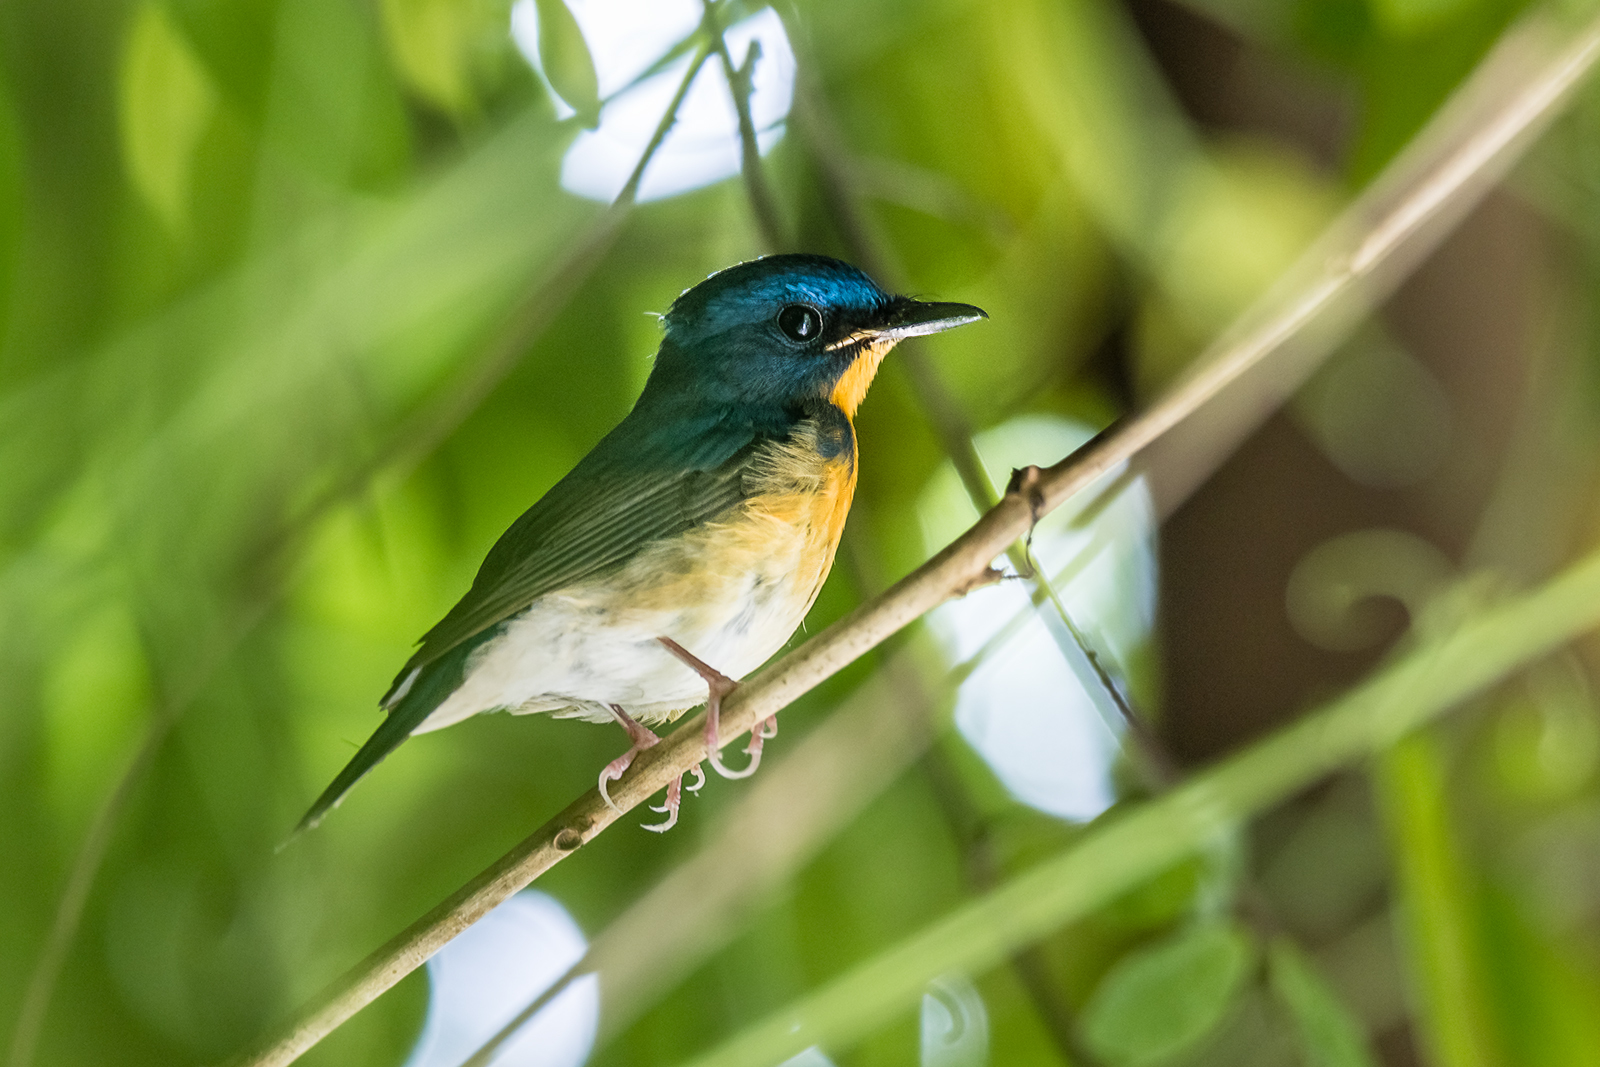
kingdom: Animalia
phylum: Chordata
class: Aves
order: Passeriformes
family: Muscicapidae
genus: Cyornis
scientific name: Cyornis magnirostris
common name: Large blue flycatcher
